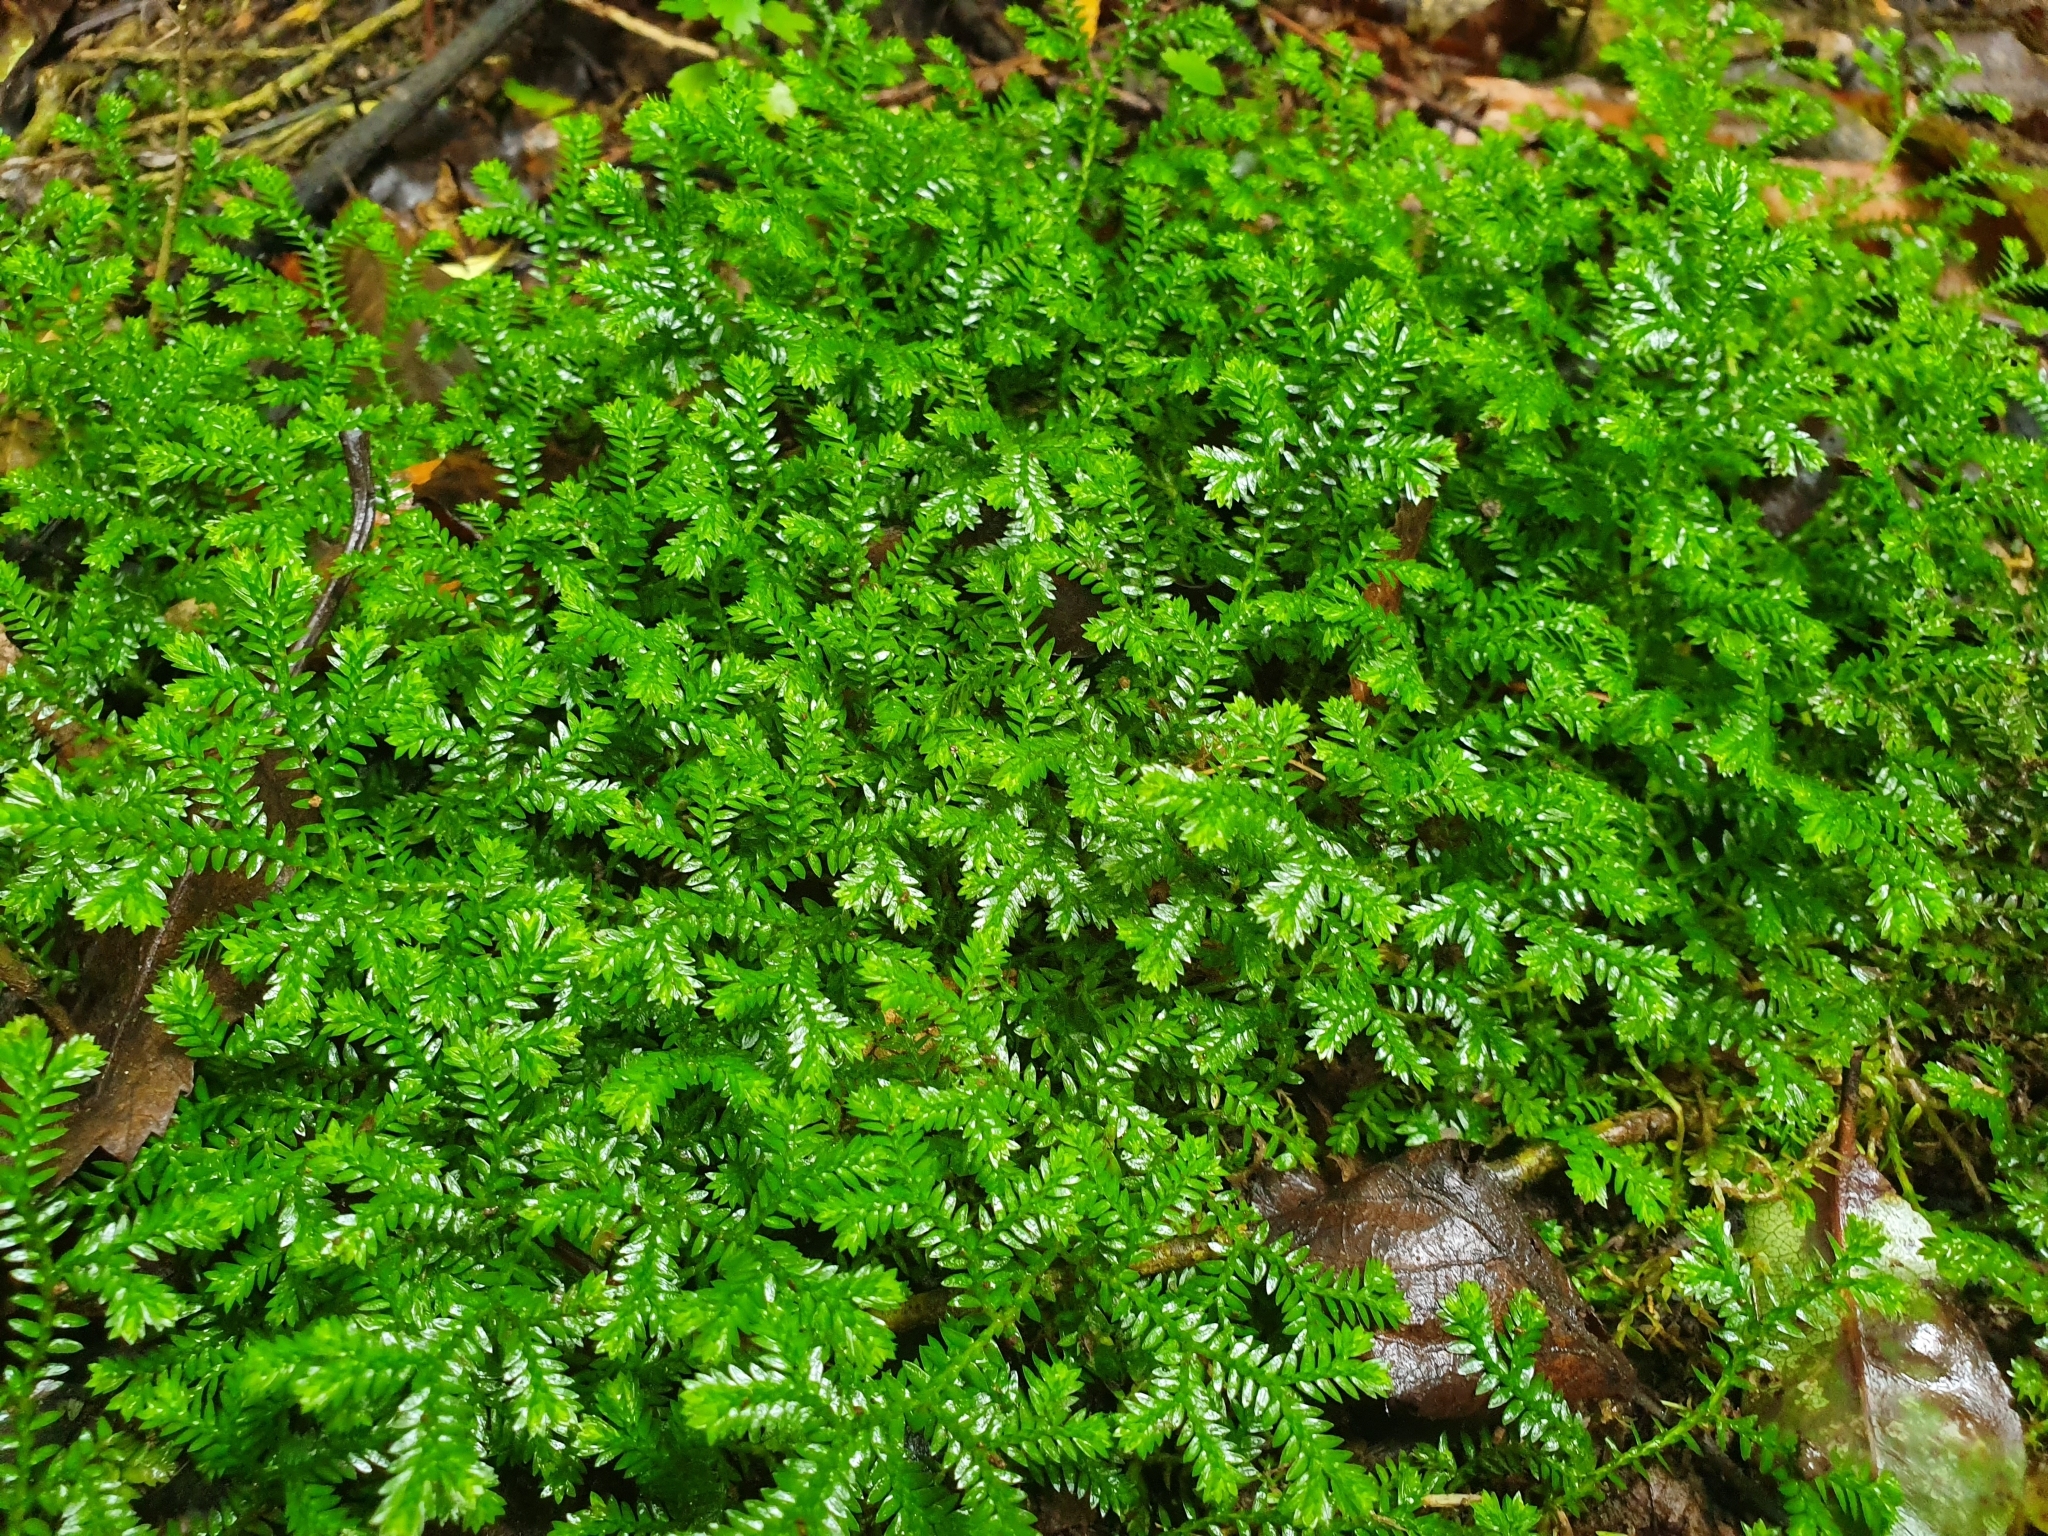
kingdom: Plantae
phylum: Tracheophyta
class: Lycopodiopsida
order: Selaginellales
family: Selaginellaceae
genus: Selaginella
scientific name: Selaginella kraussiana
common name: Krauss' spikemoss
